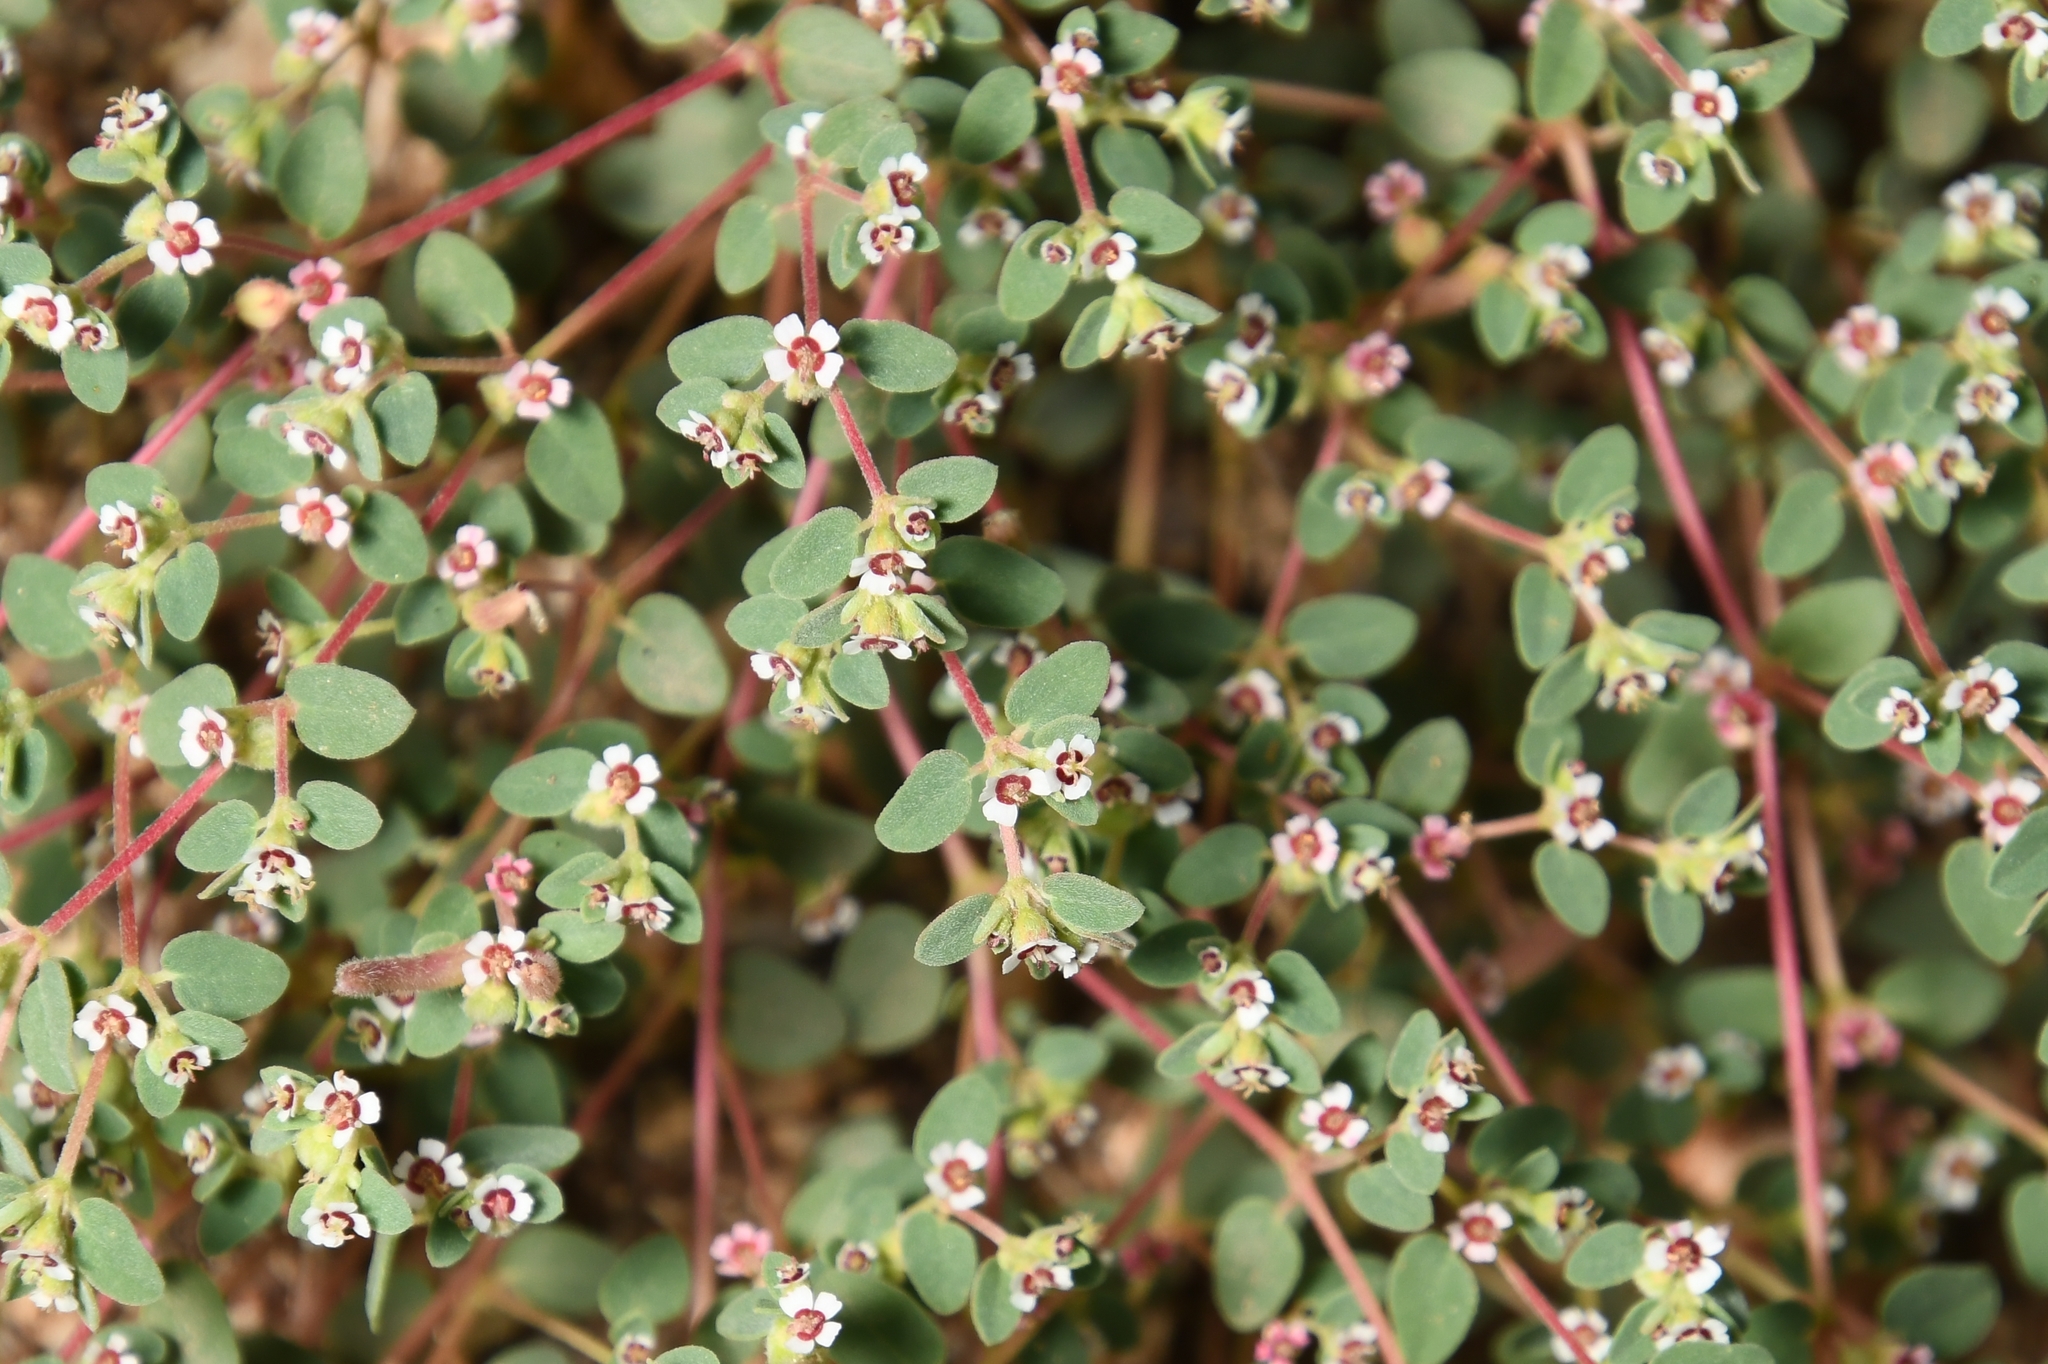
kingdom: Plantae
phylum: Tracheophyta
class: Magnoliopsida
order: Malpighiales
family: Euphorbiaceae
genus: Euphorbia
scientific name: Euphorbia melanadenia
